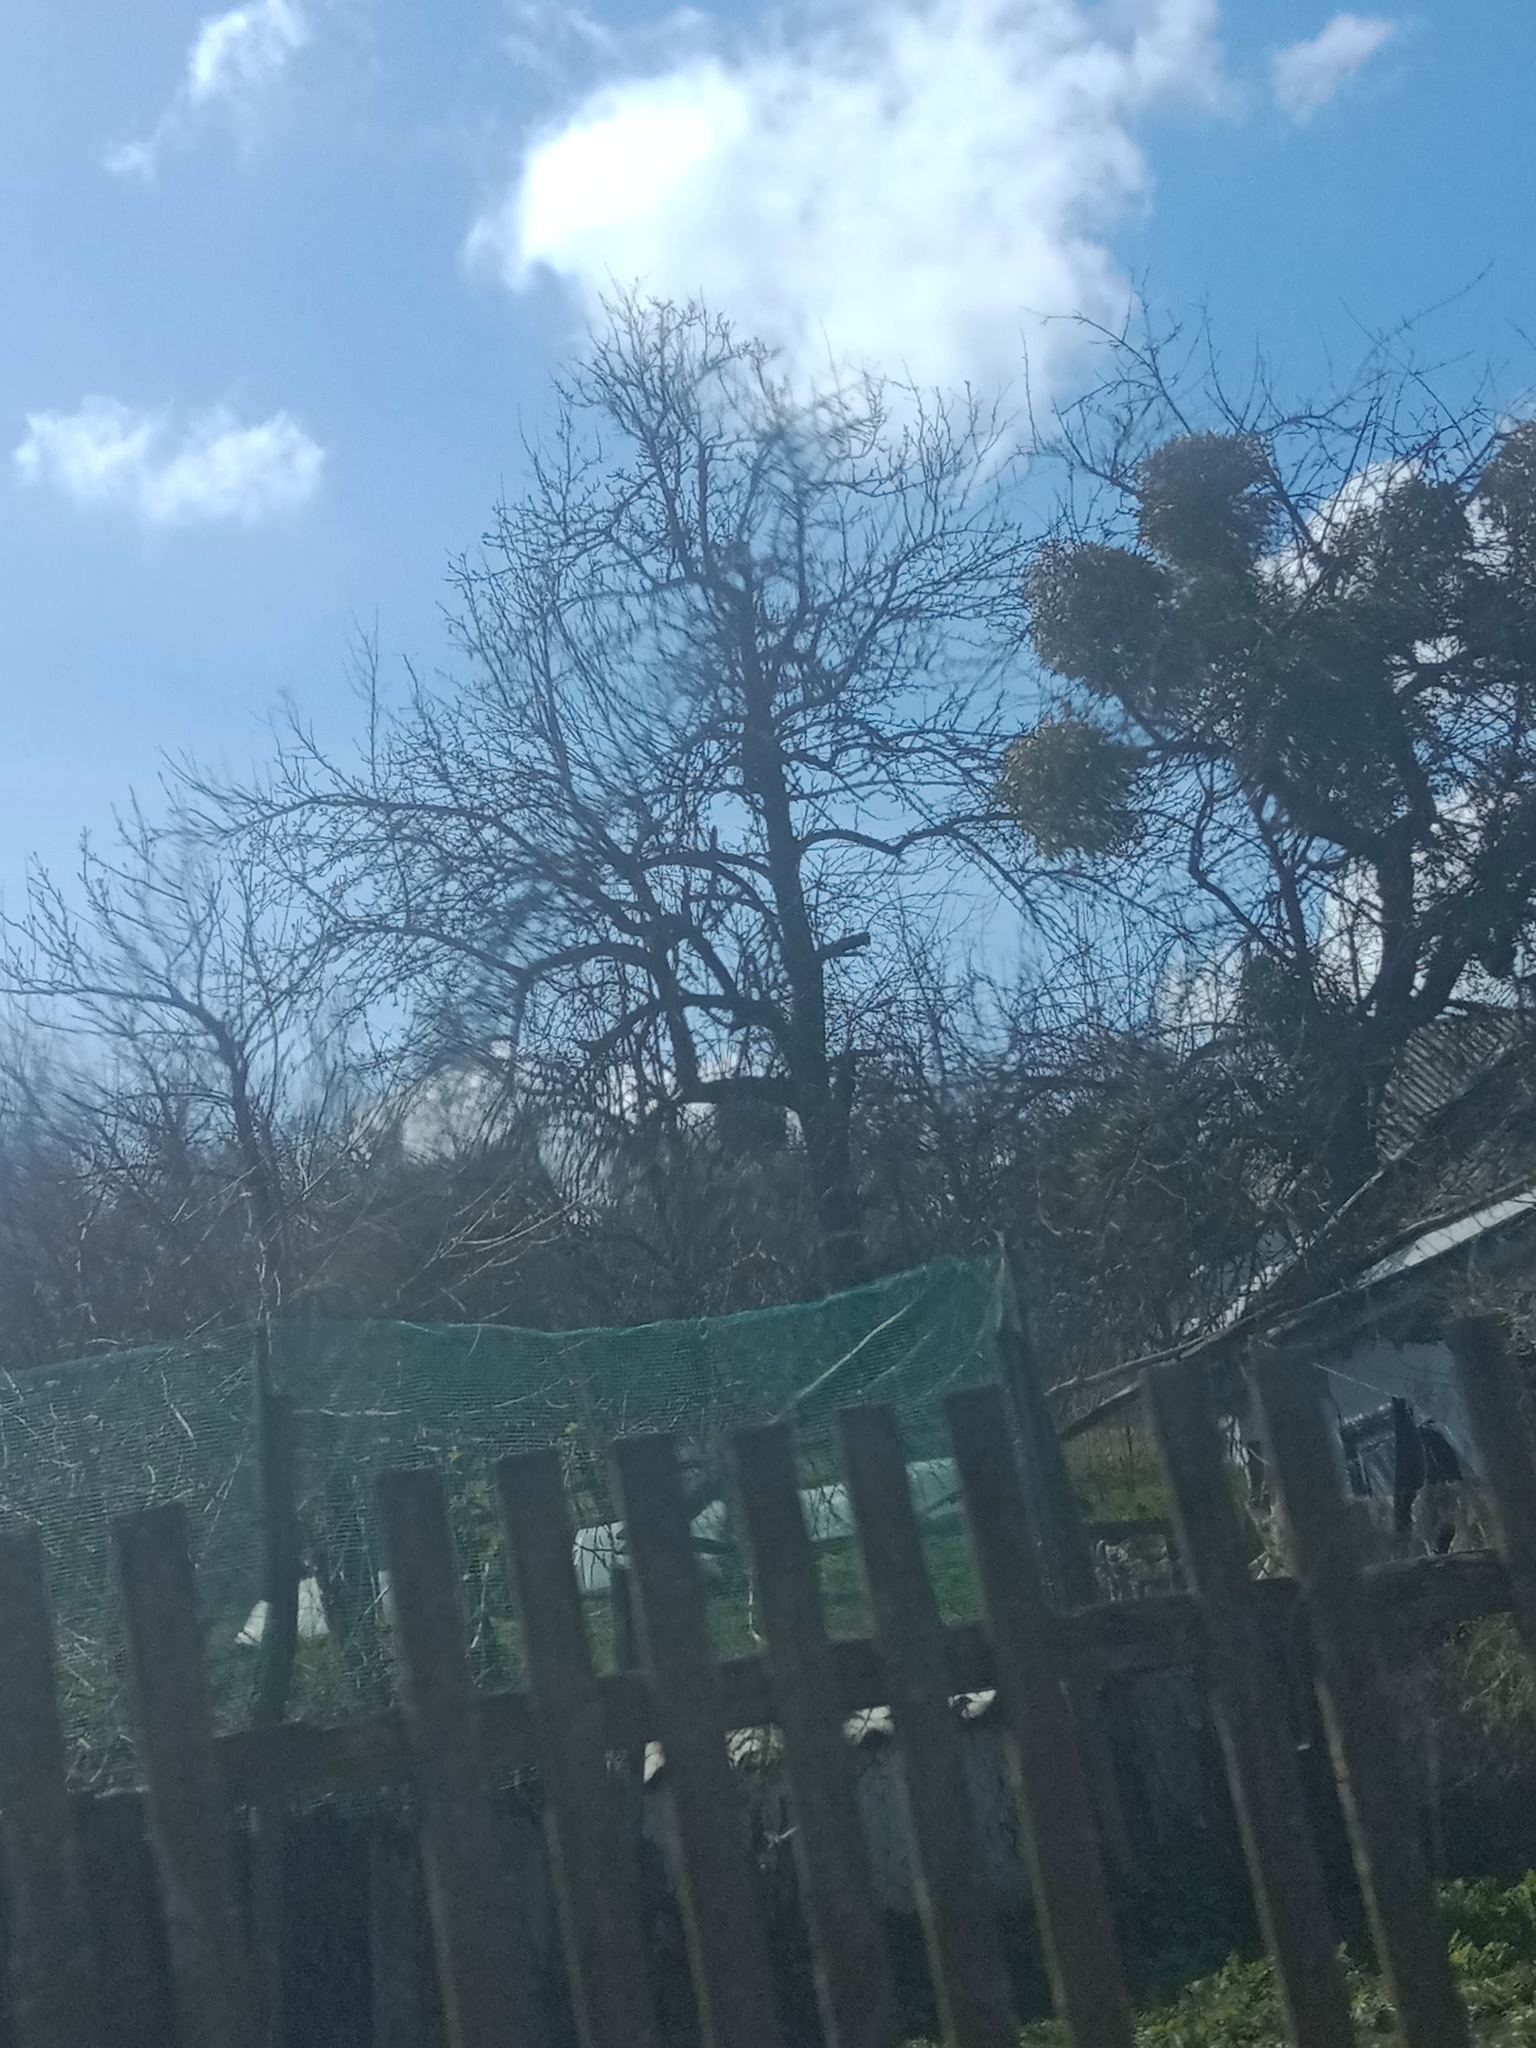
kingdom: Plantae
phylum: Tracheophyta
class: Magnoliopsida
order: Santalales
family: Viscaceae
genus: Viscum
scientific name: Viscum album
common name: Mistletoe
